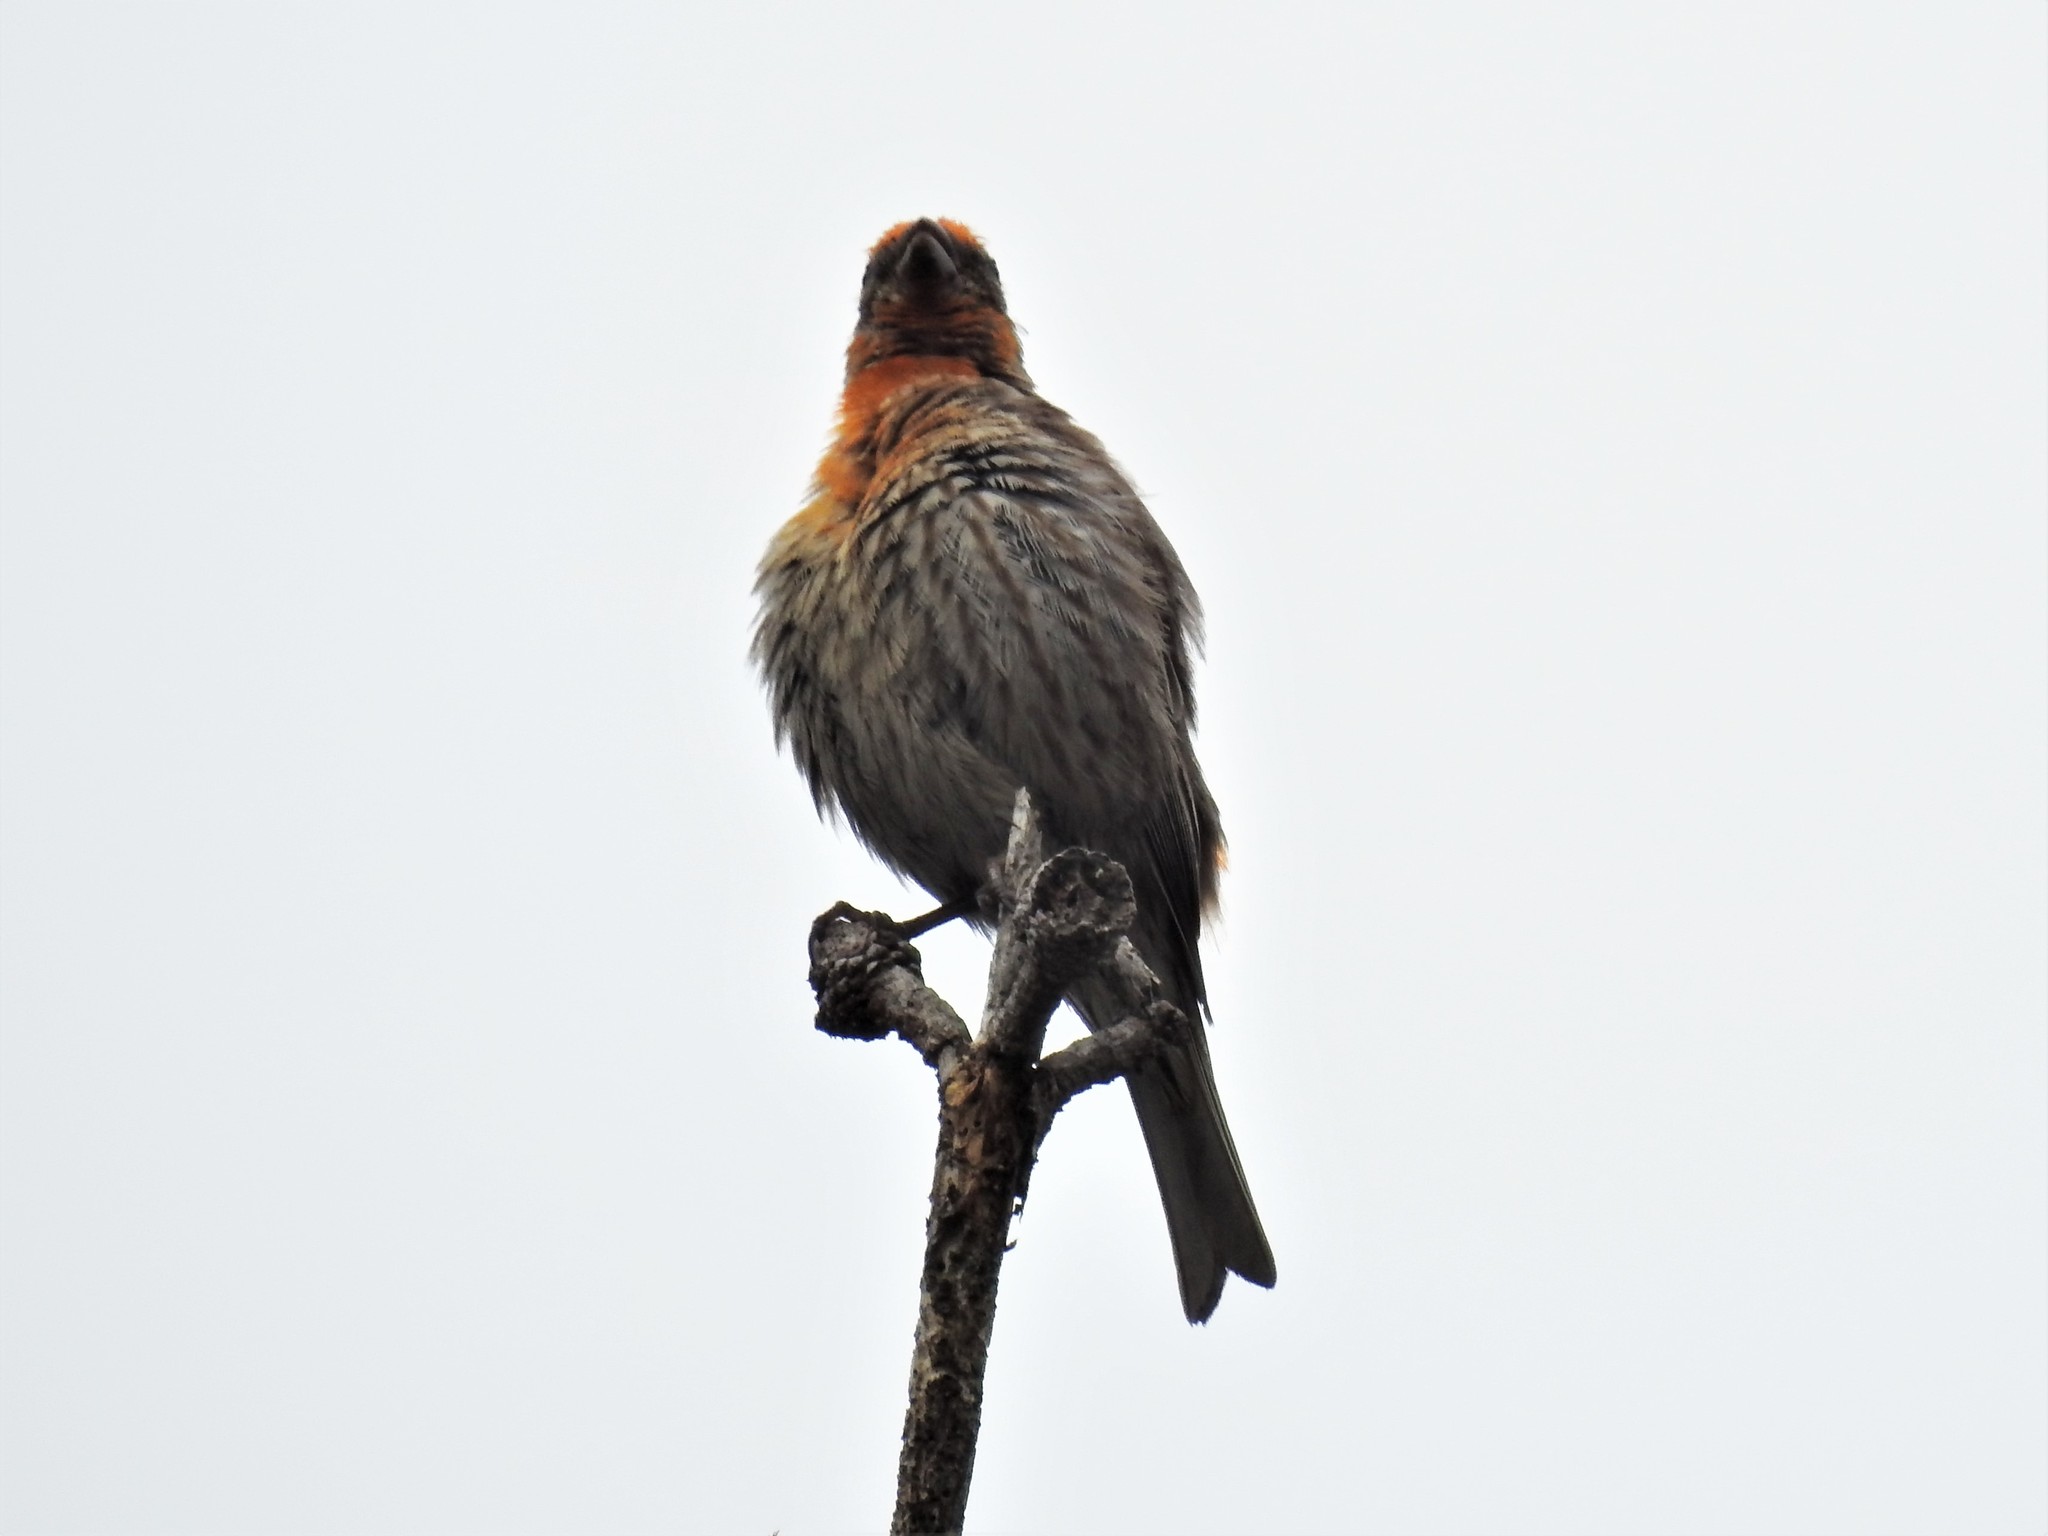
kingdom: Animalia
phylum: Chordata
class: Aves
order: Passeriformes
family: Fringillidae
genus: Haemorhous
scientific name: Haemorhous mexicanus
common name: House finch
